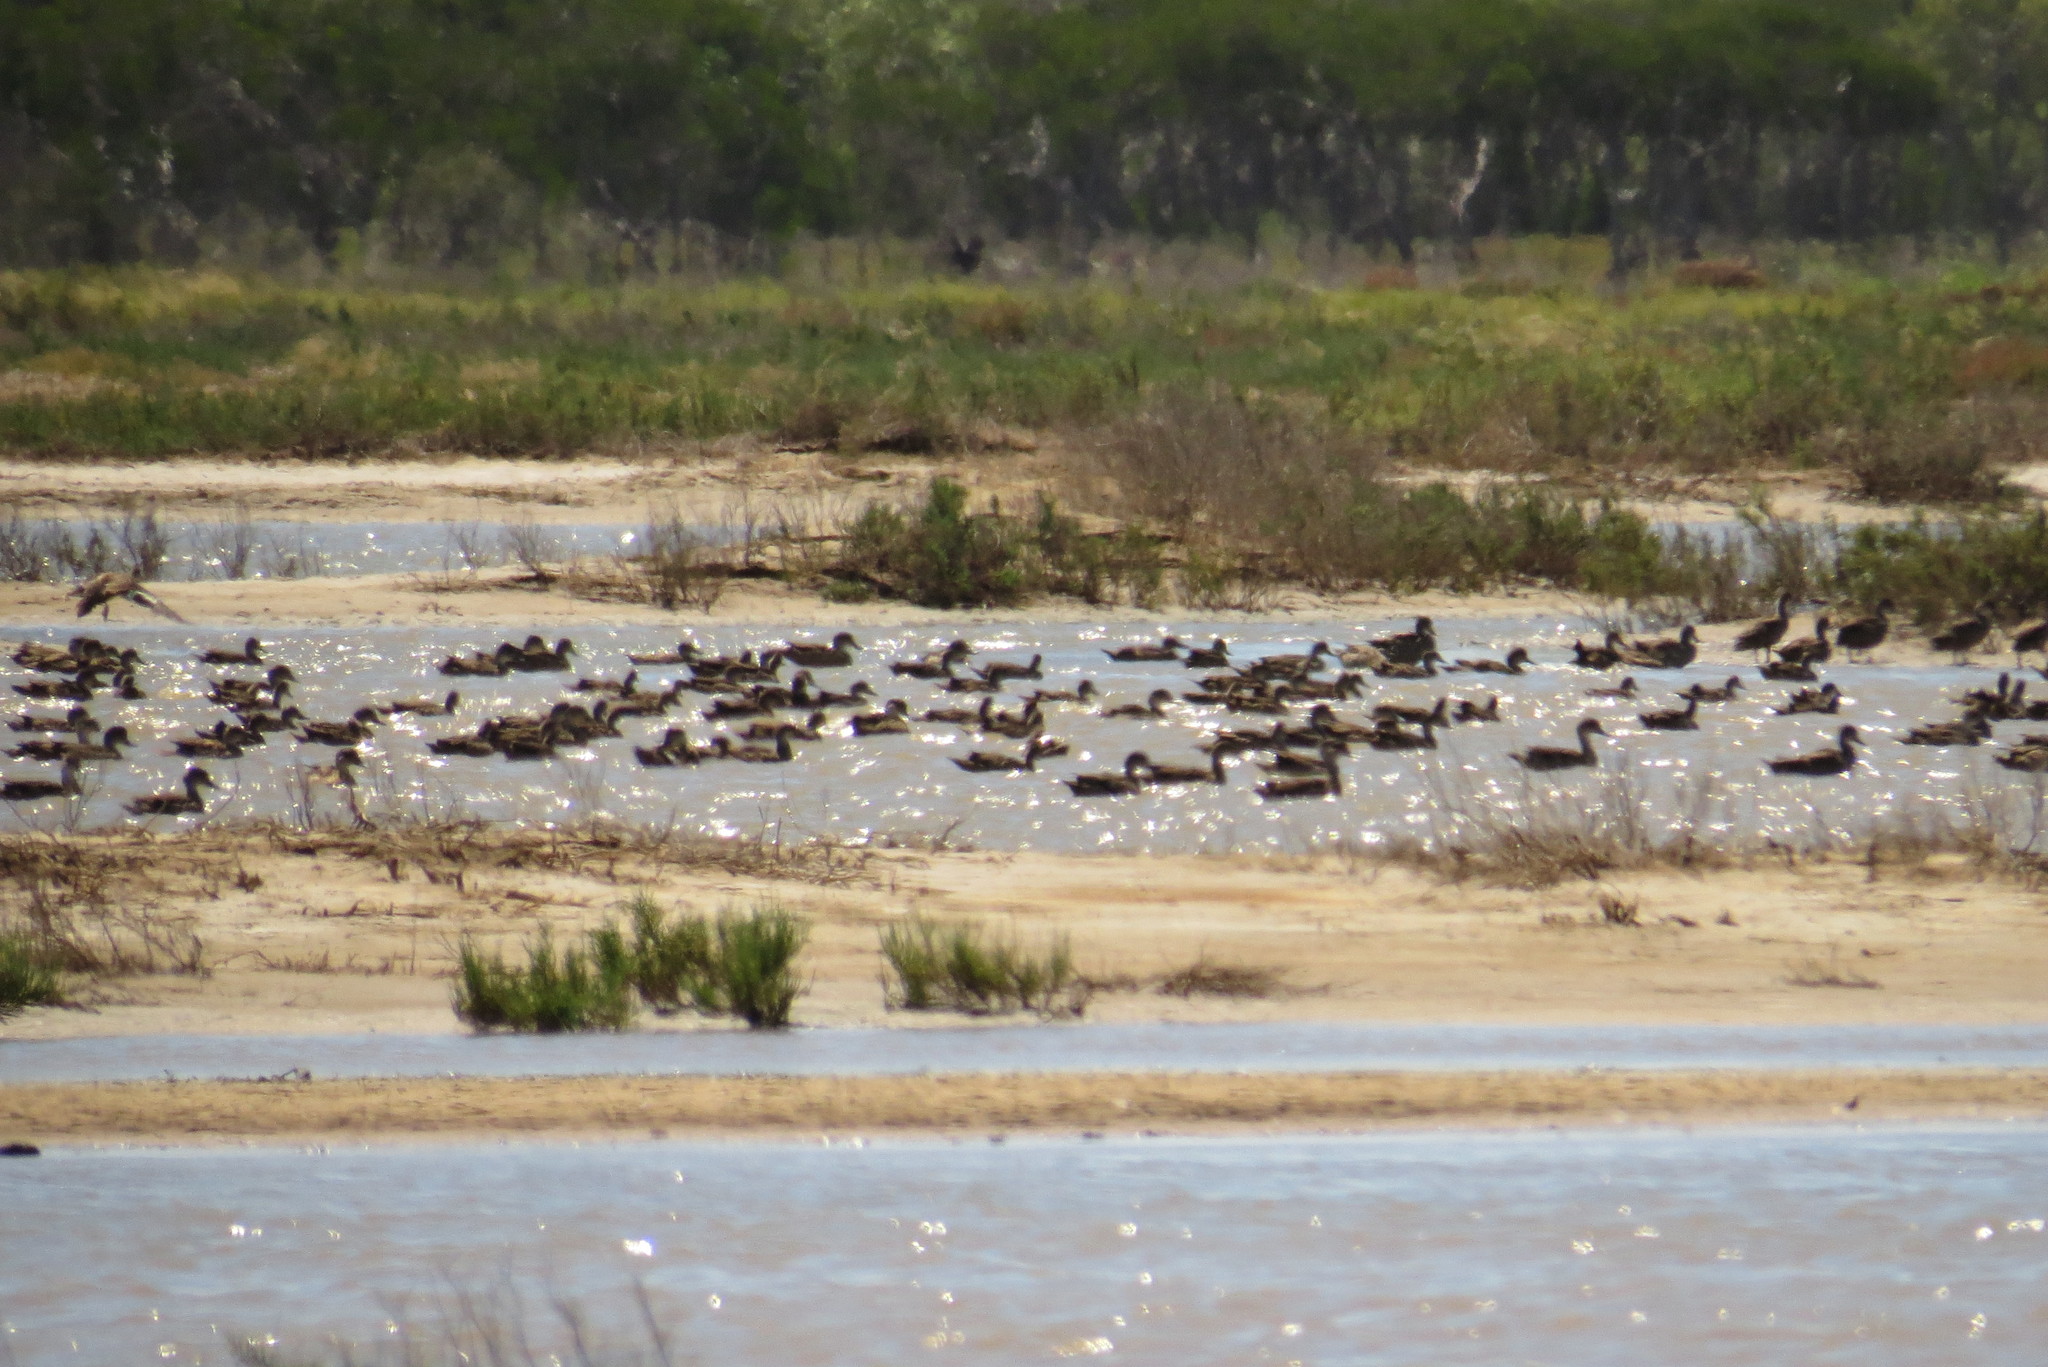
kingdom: Animalia
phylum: Chordata
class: Aves
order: Anseriformes
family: Anatidae
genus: Anas
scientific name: Anas gracilis
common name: Grey teal
